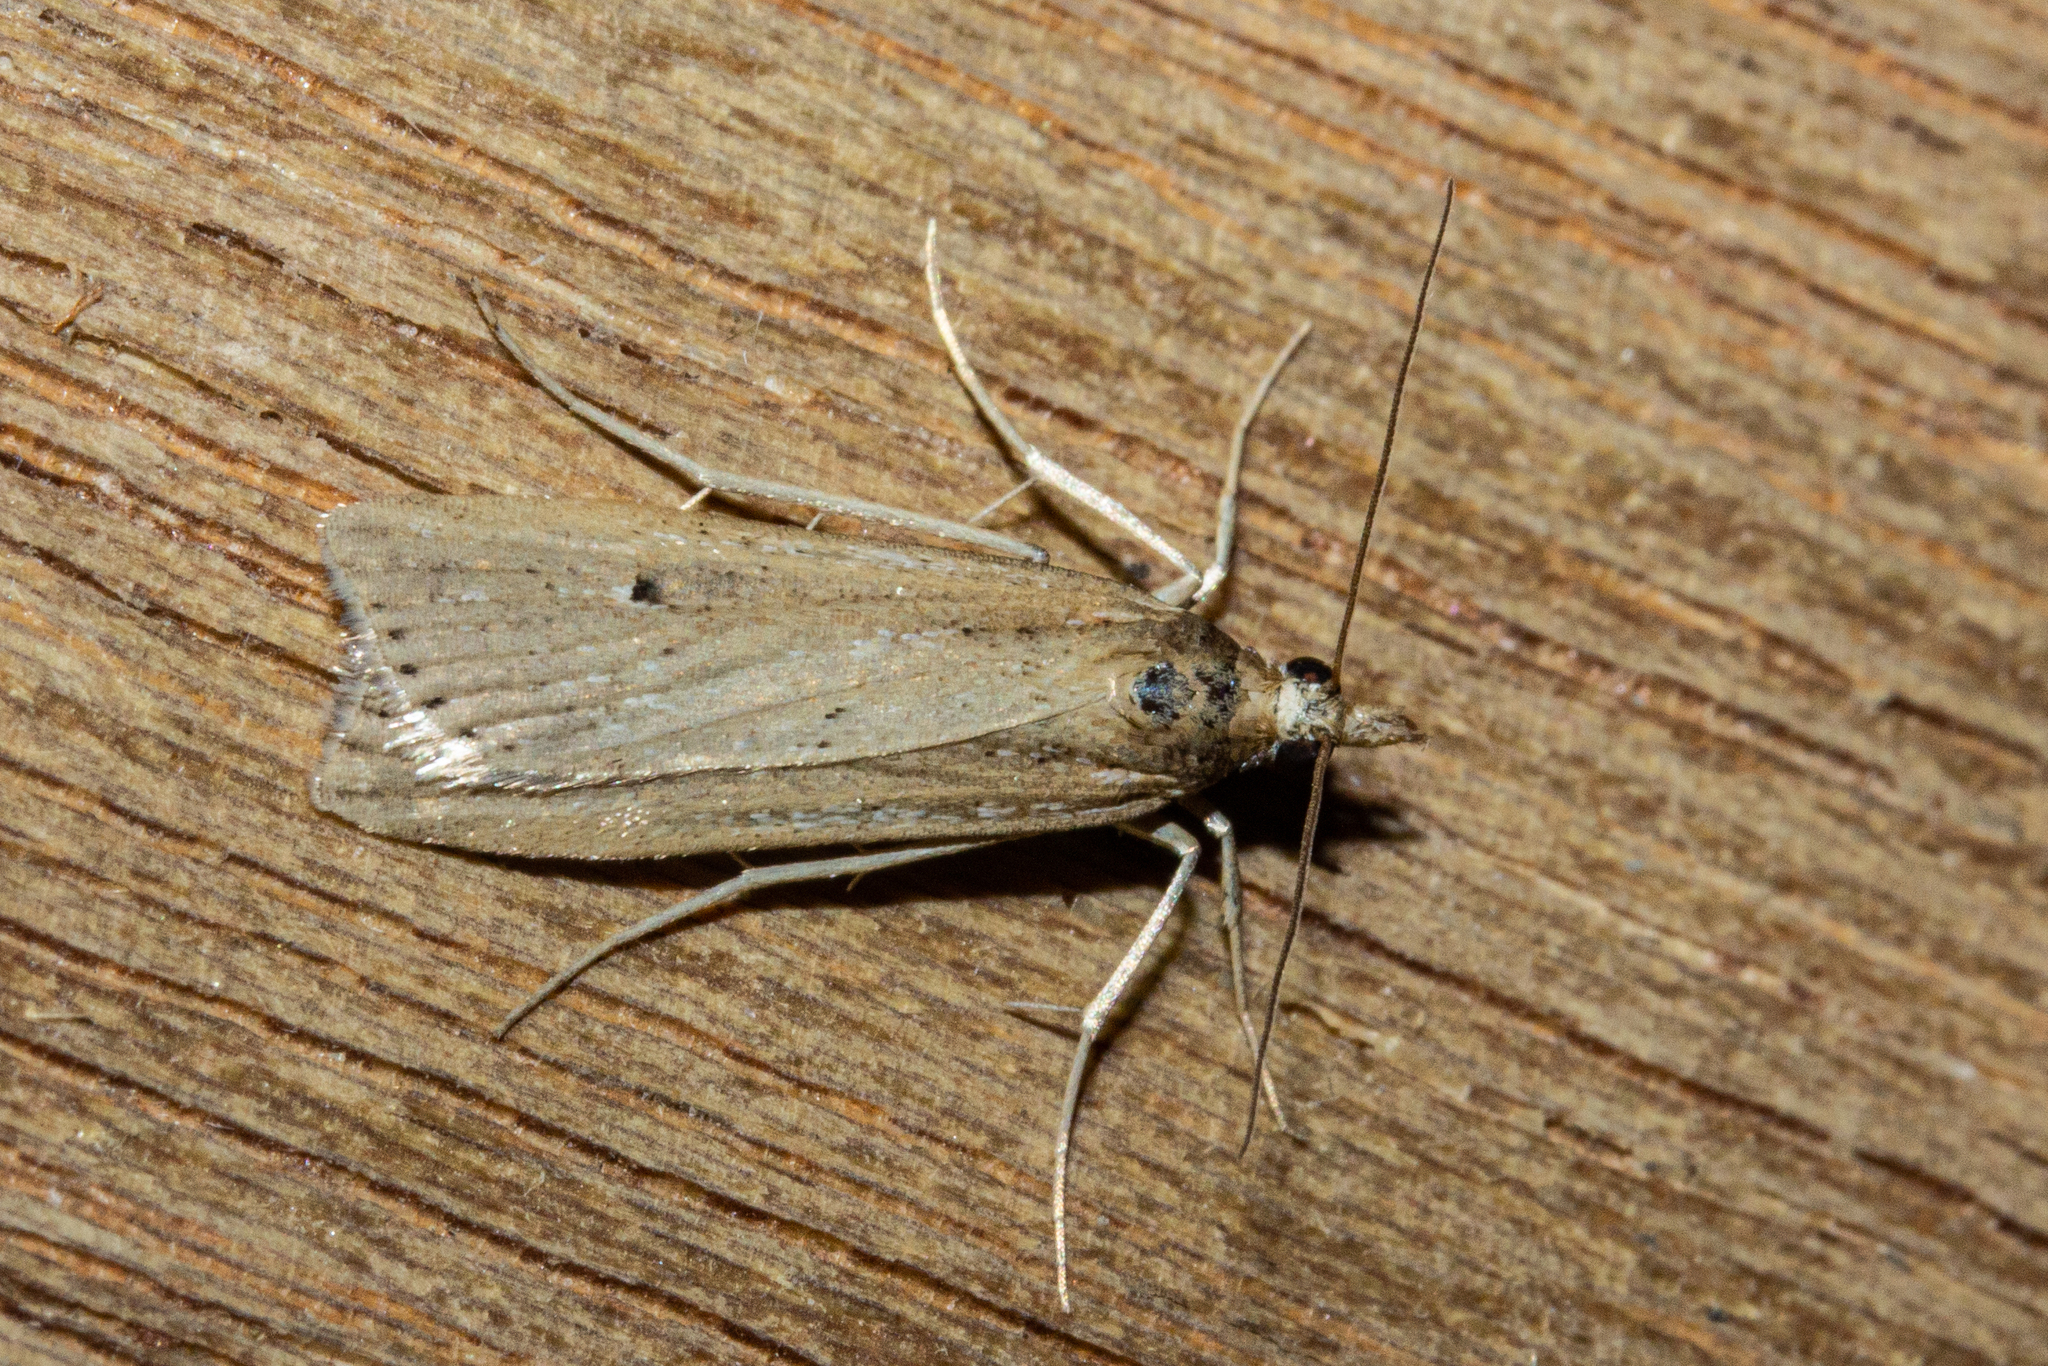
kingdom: Animalia
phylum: Arthropoda
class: Insecta
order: Lepidoptera
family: Crambidae
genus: Eudonia
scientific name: Eudonia sabulosella
